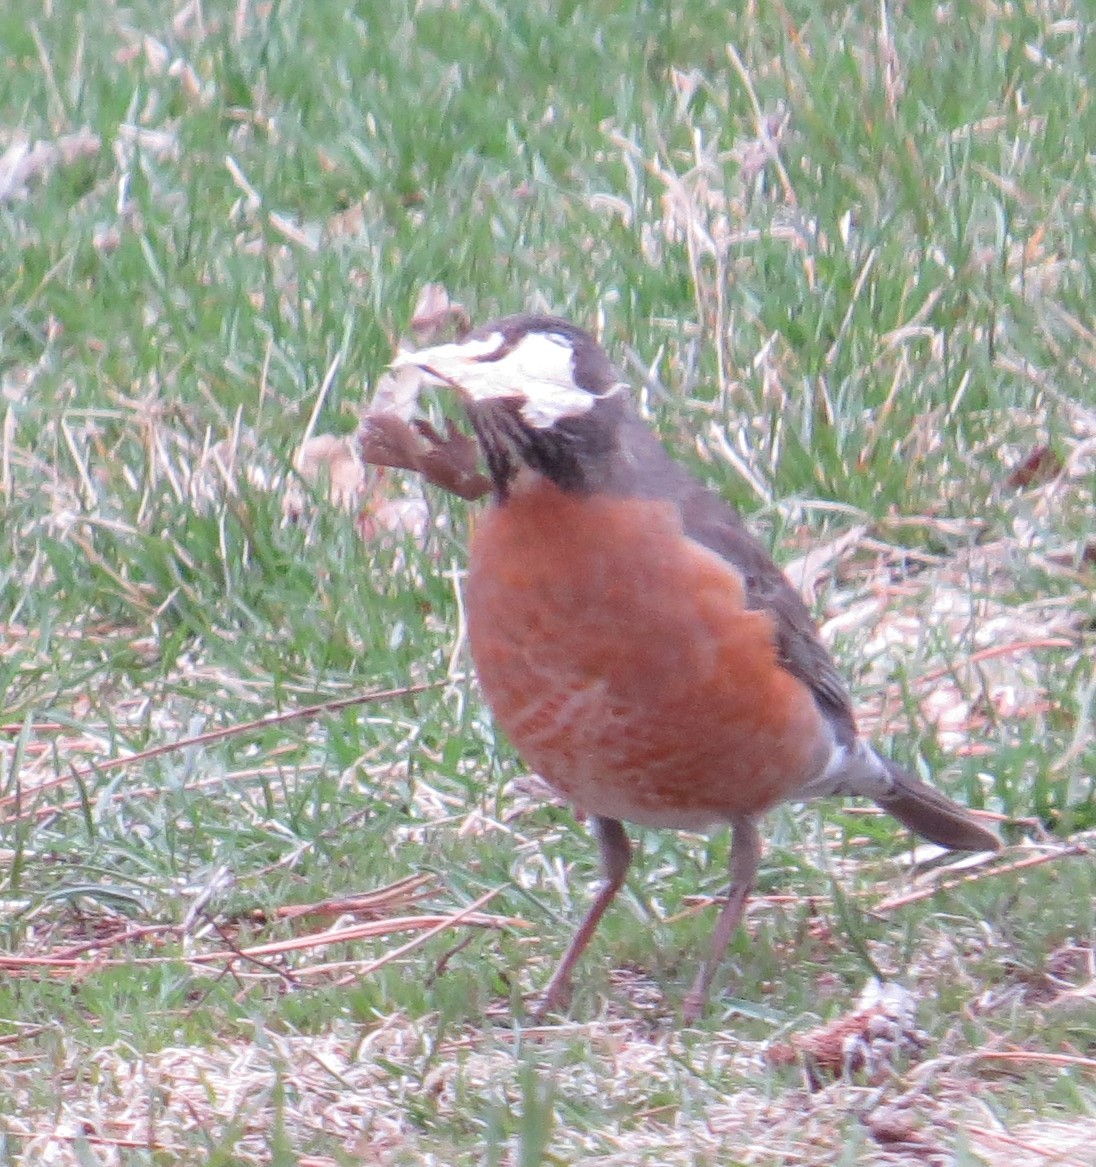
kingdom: Animalia
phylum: Chordata
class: Aves
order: Passeriformes
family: Turdidae
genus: Turdus
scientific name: Turdus migratorius
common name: American robin
